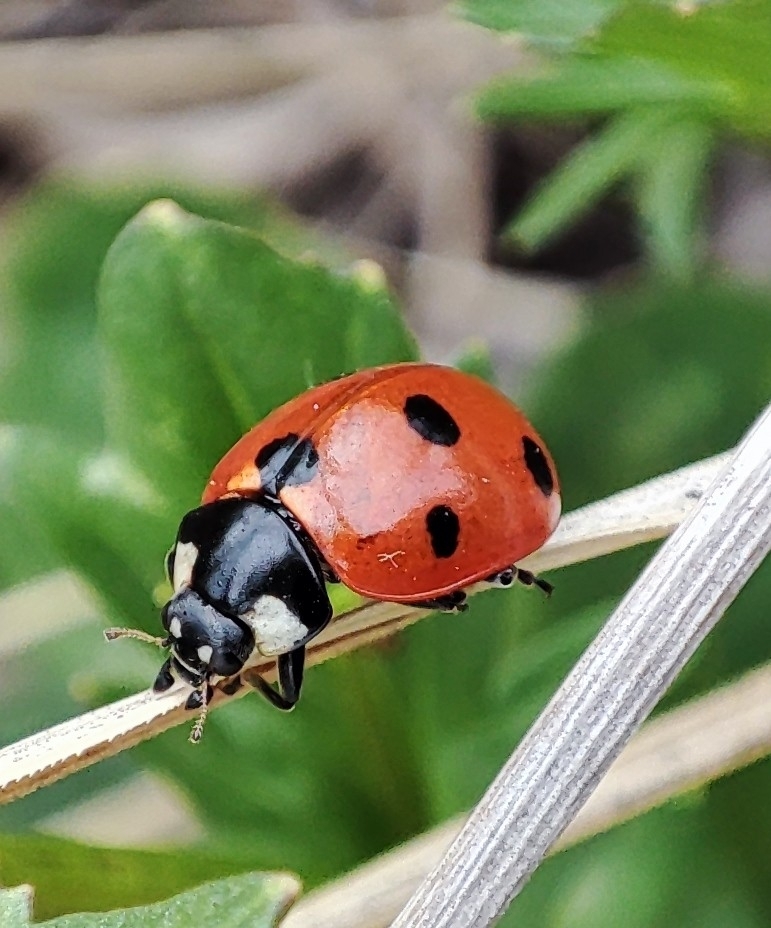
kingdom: Animalia
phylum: Arthropoda
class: Insecta
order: Coleoptera
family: Coccinellidae
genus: Coccinella
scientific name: Coccinella septempunctata
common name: Sevenspotted lady beetle
